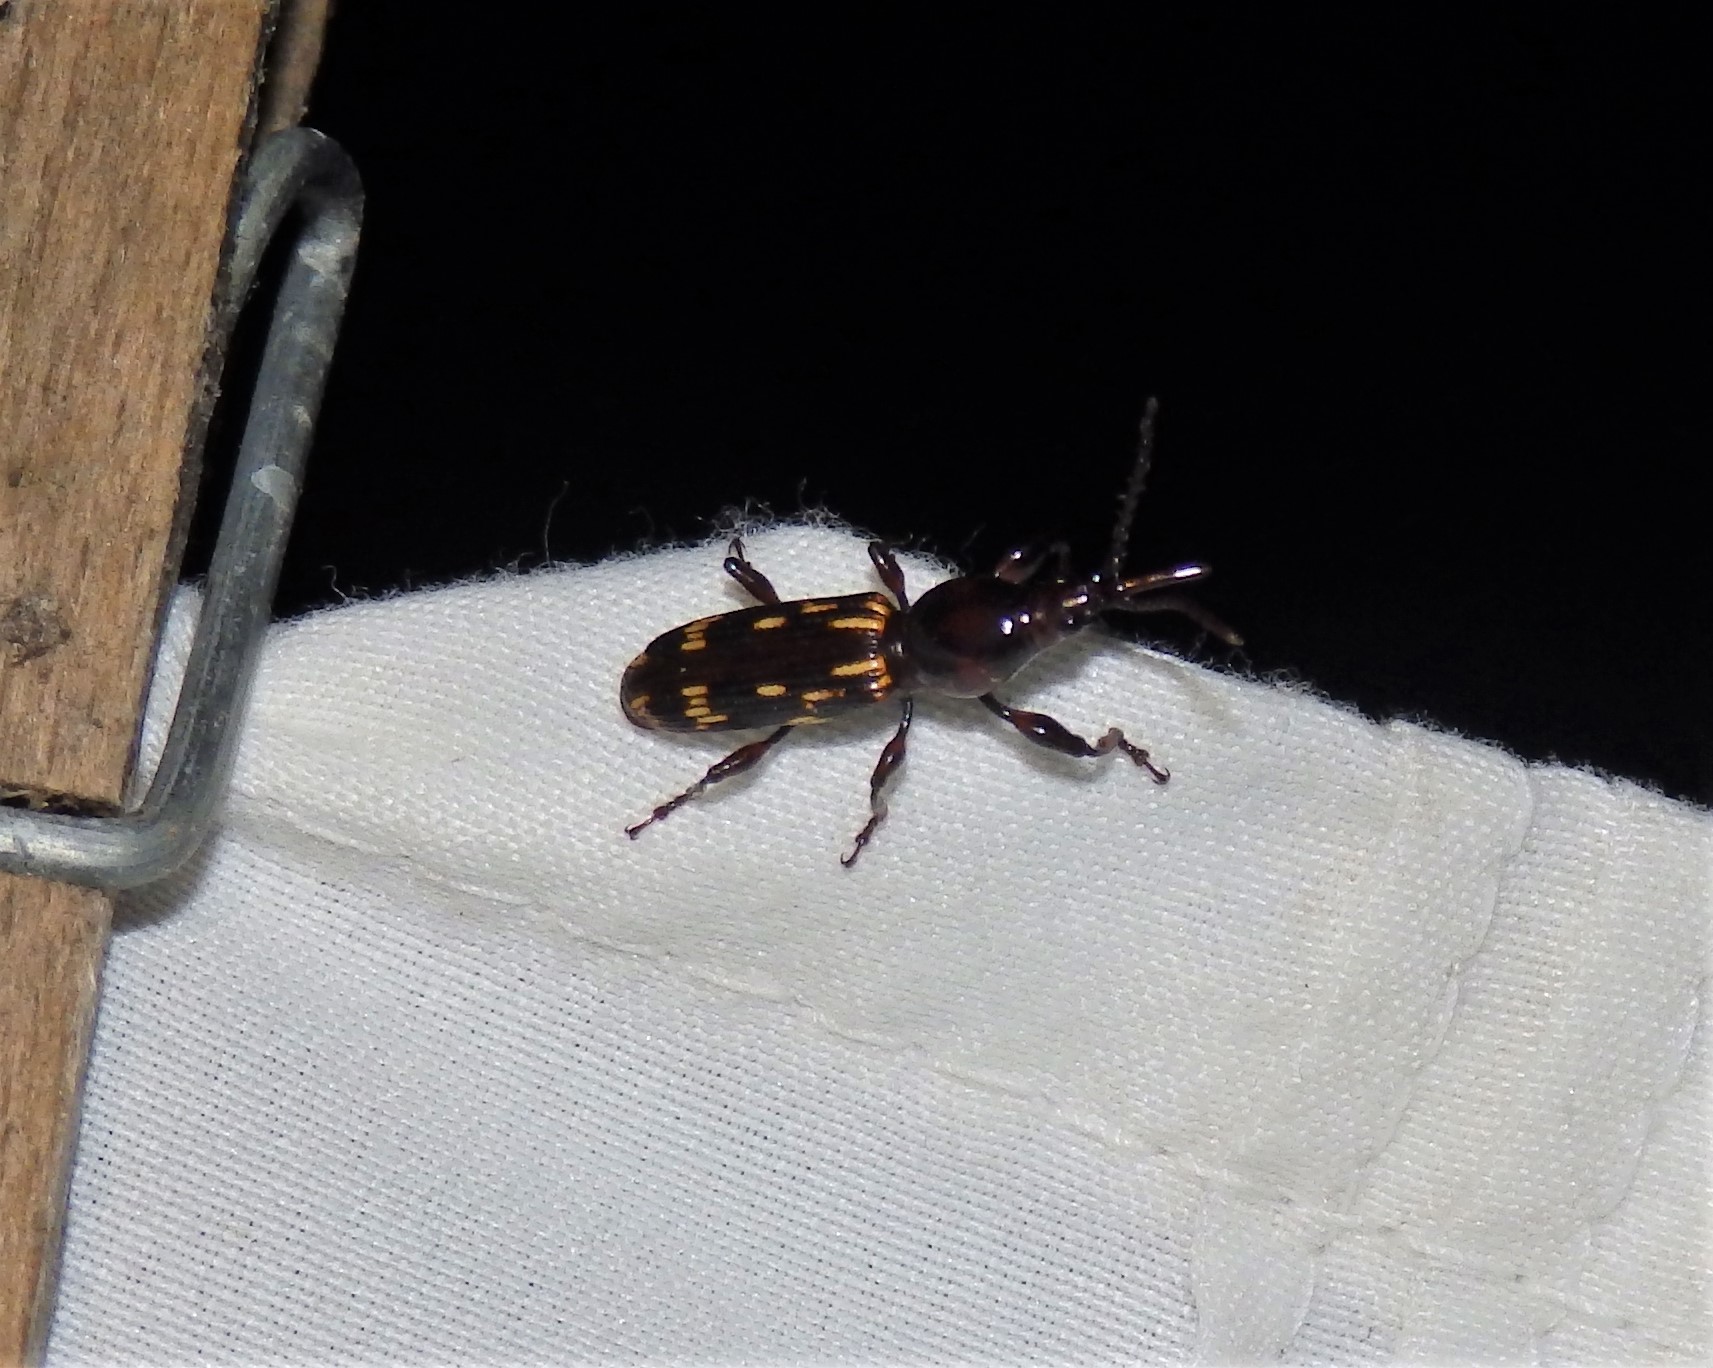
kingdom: Animalia
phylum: Arthropoda
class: Insecta
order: Coleoptera
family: Brentidae
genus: Arrenodes
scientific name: Arrenodes minutus
